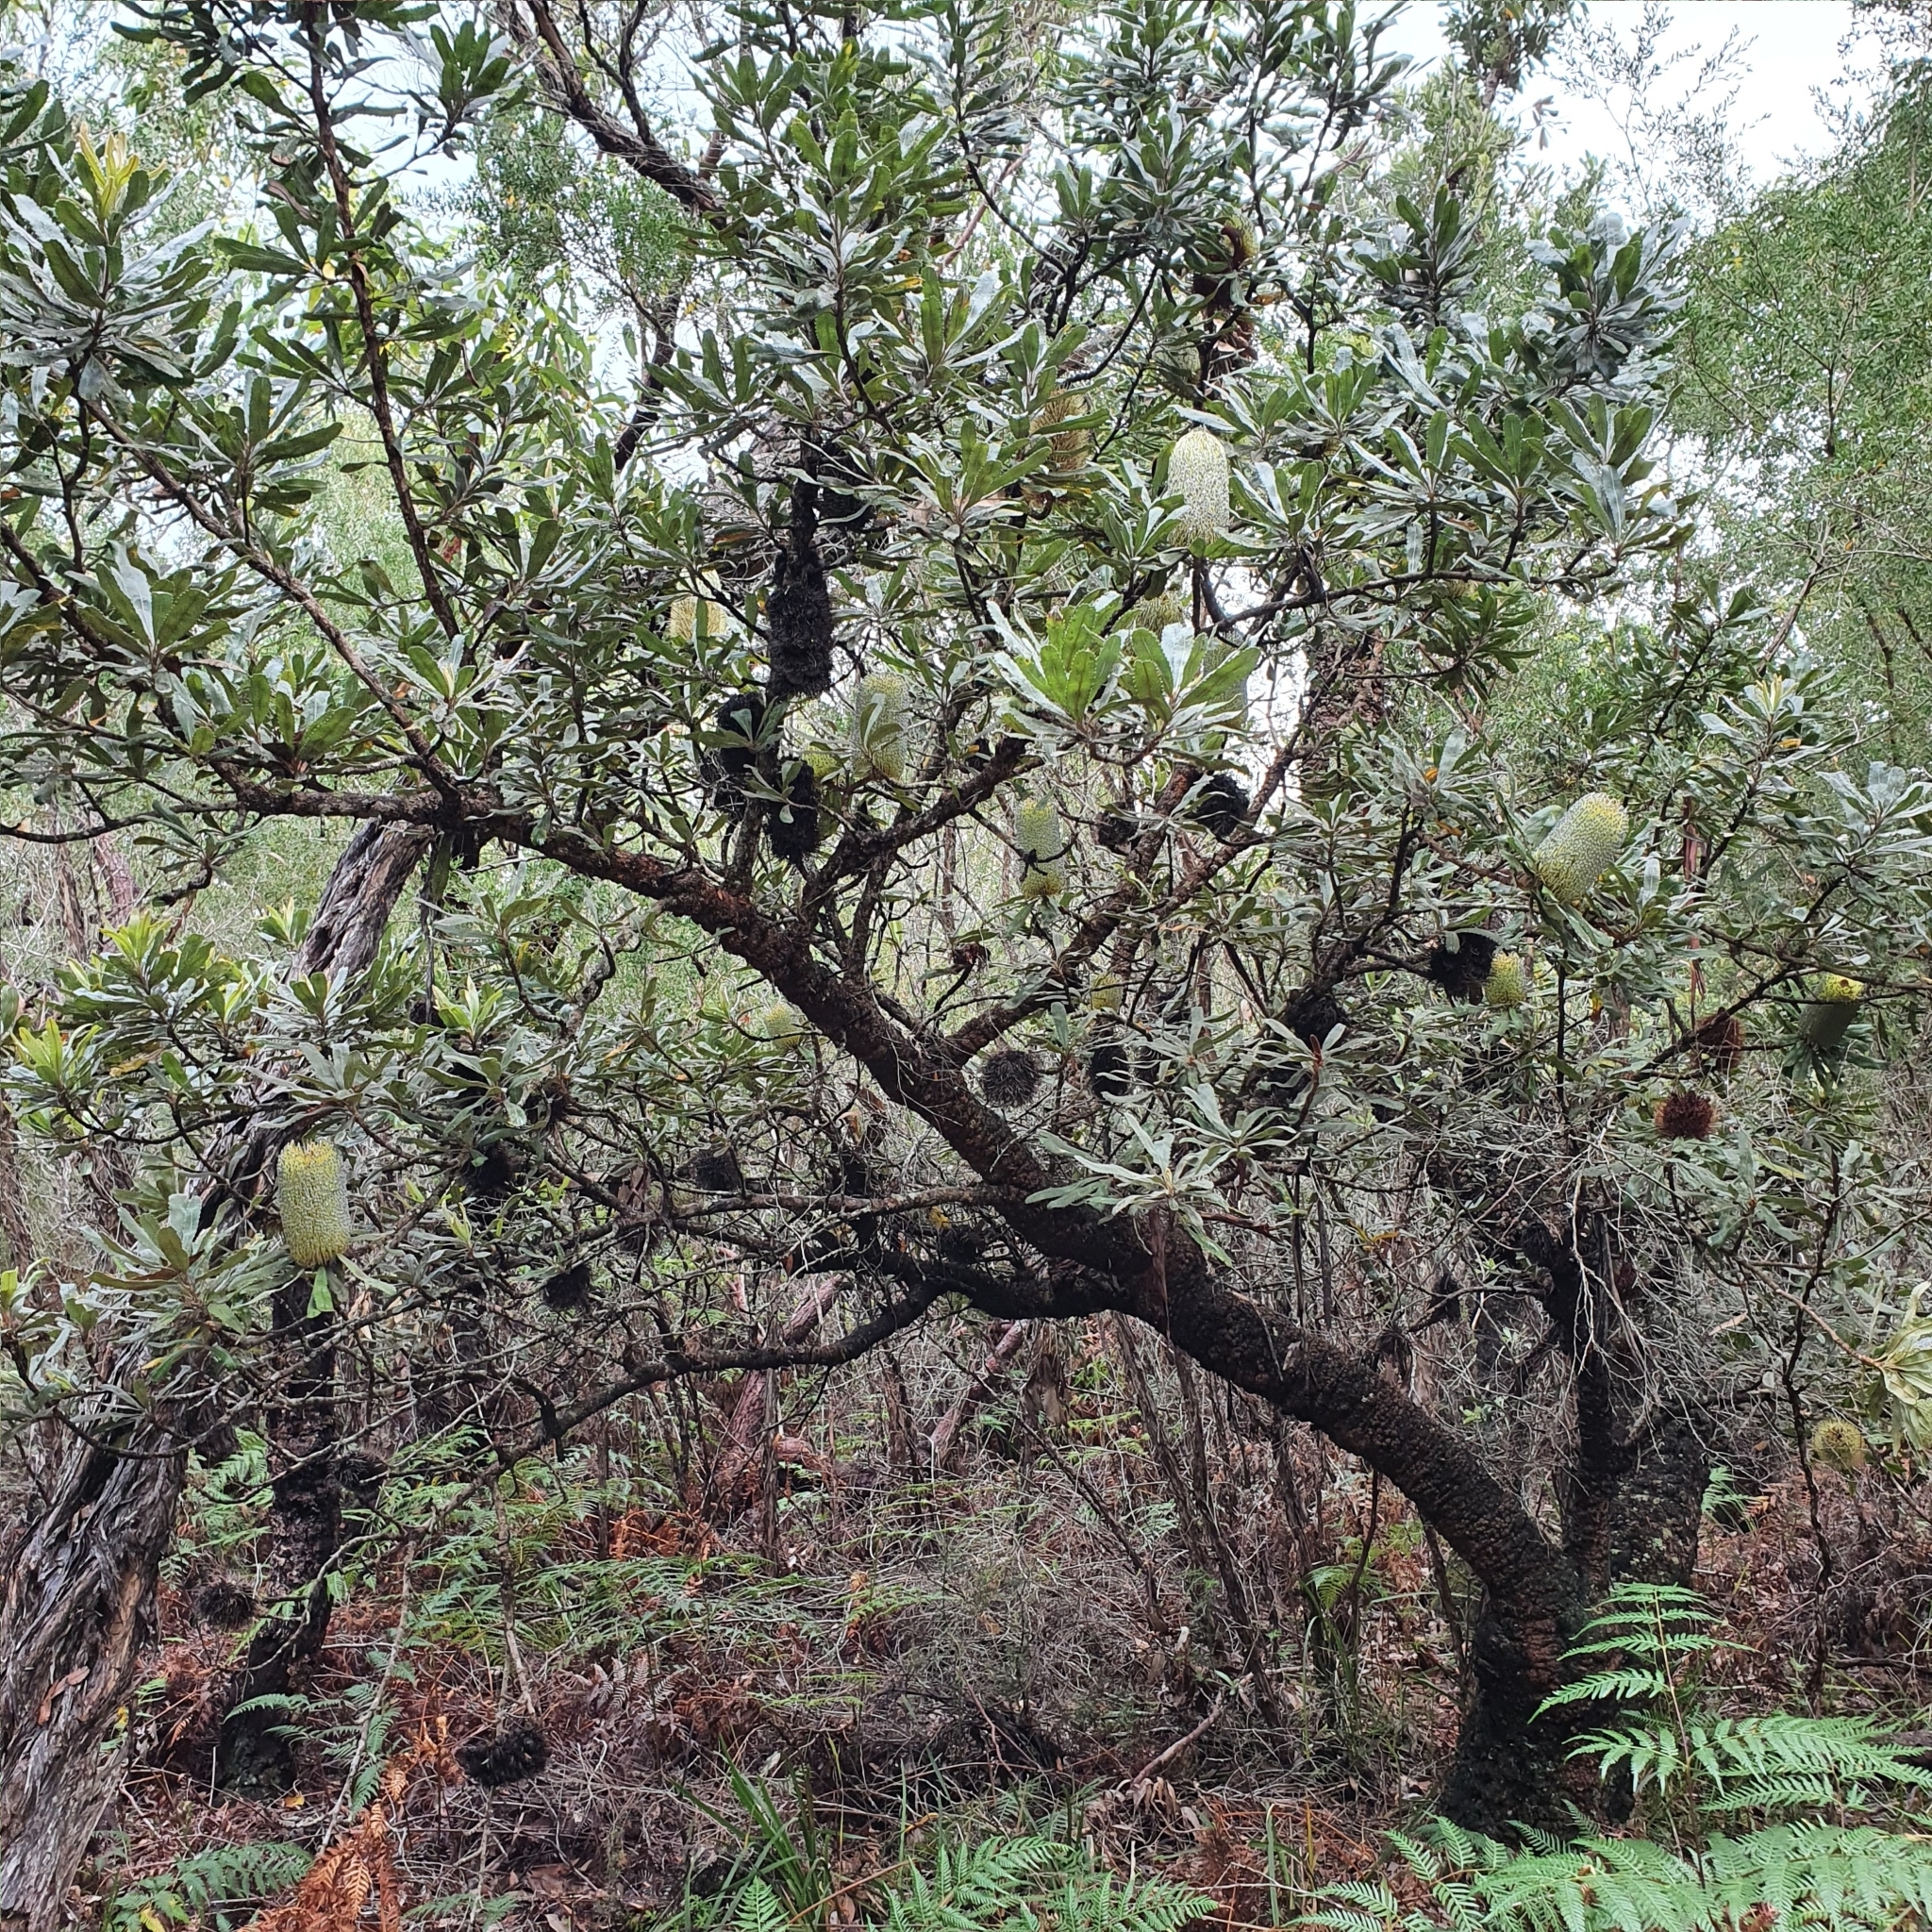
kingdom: Plantae
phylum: Tracheophyta
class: Magnoliopsida
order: Proteales
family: Proteaceae
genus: Banksia
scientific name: Banksia serrata
